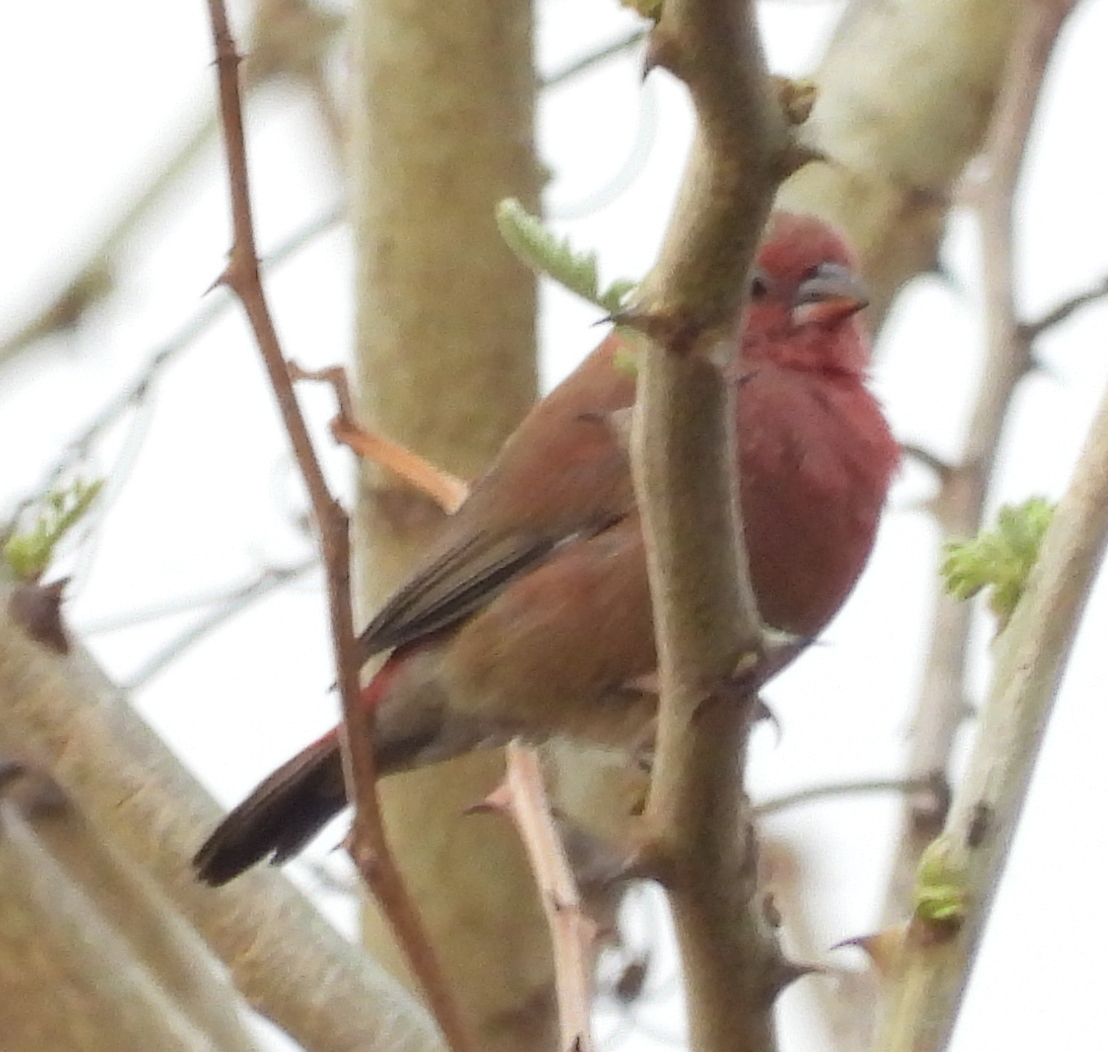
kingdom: Animalia
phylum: Chordata
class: Aves
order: Passeriformes
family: Estrildidae
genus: Lagonosticta
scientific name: Lagonosticta senegala
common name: Red-billed firefinch
